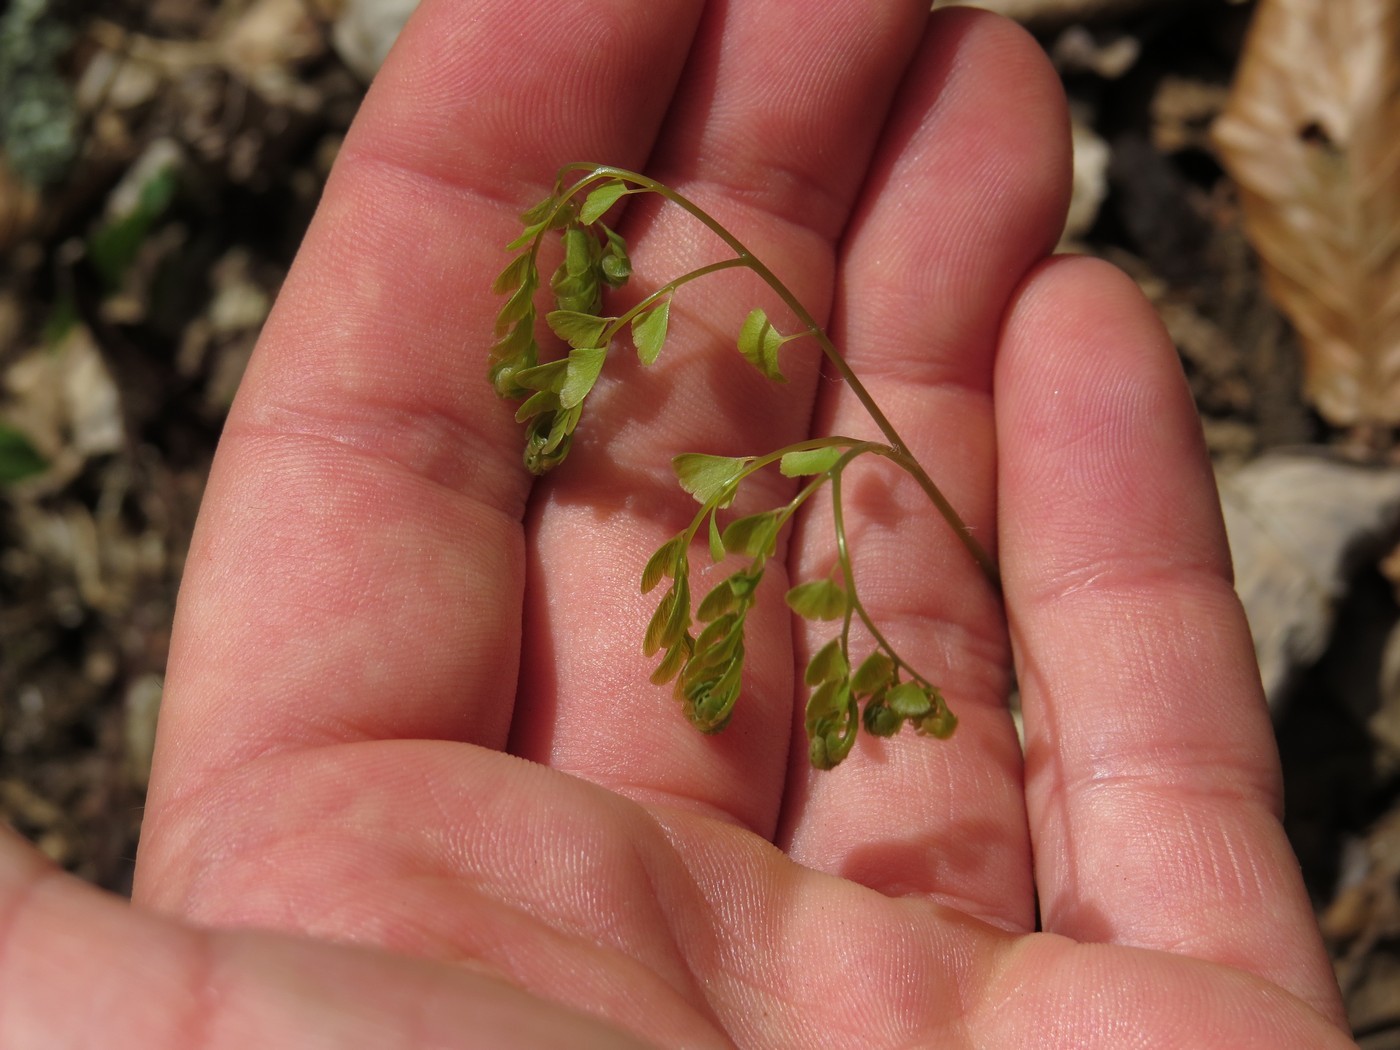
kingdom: Plantae
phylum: Tracheophyta
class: Polypodiopsida
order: Polypodiales
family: Pteridaceae
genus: Adiantum
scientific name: Adiantum pedatum
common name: Five-finger fern
